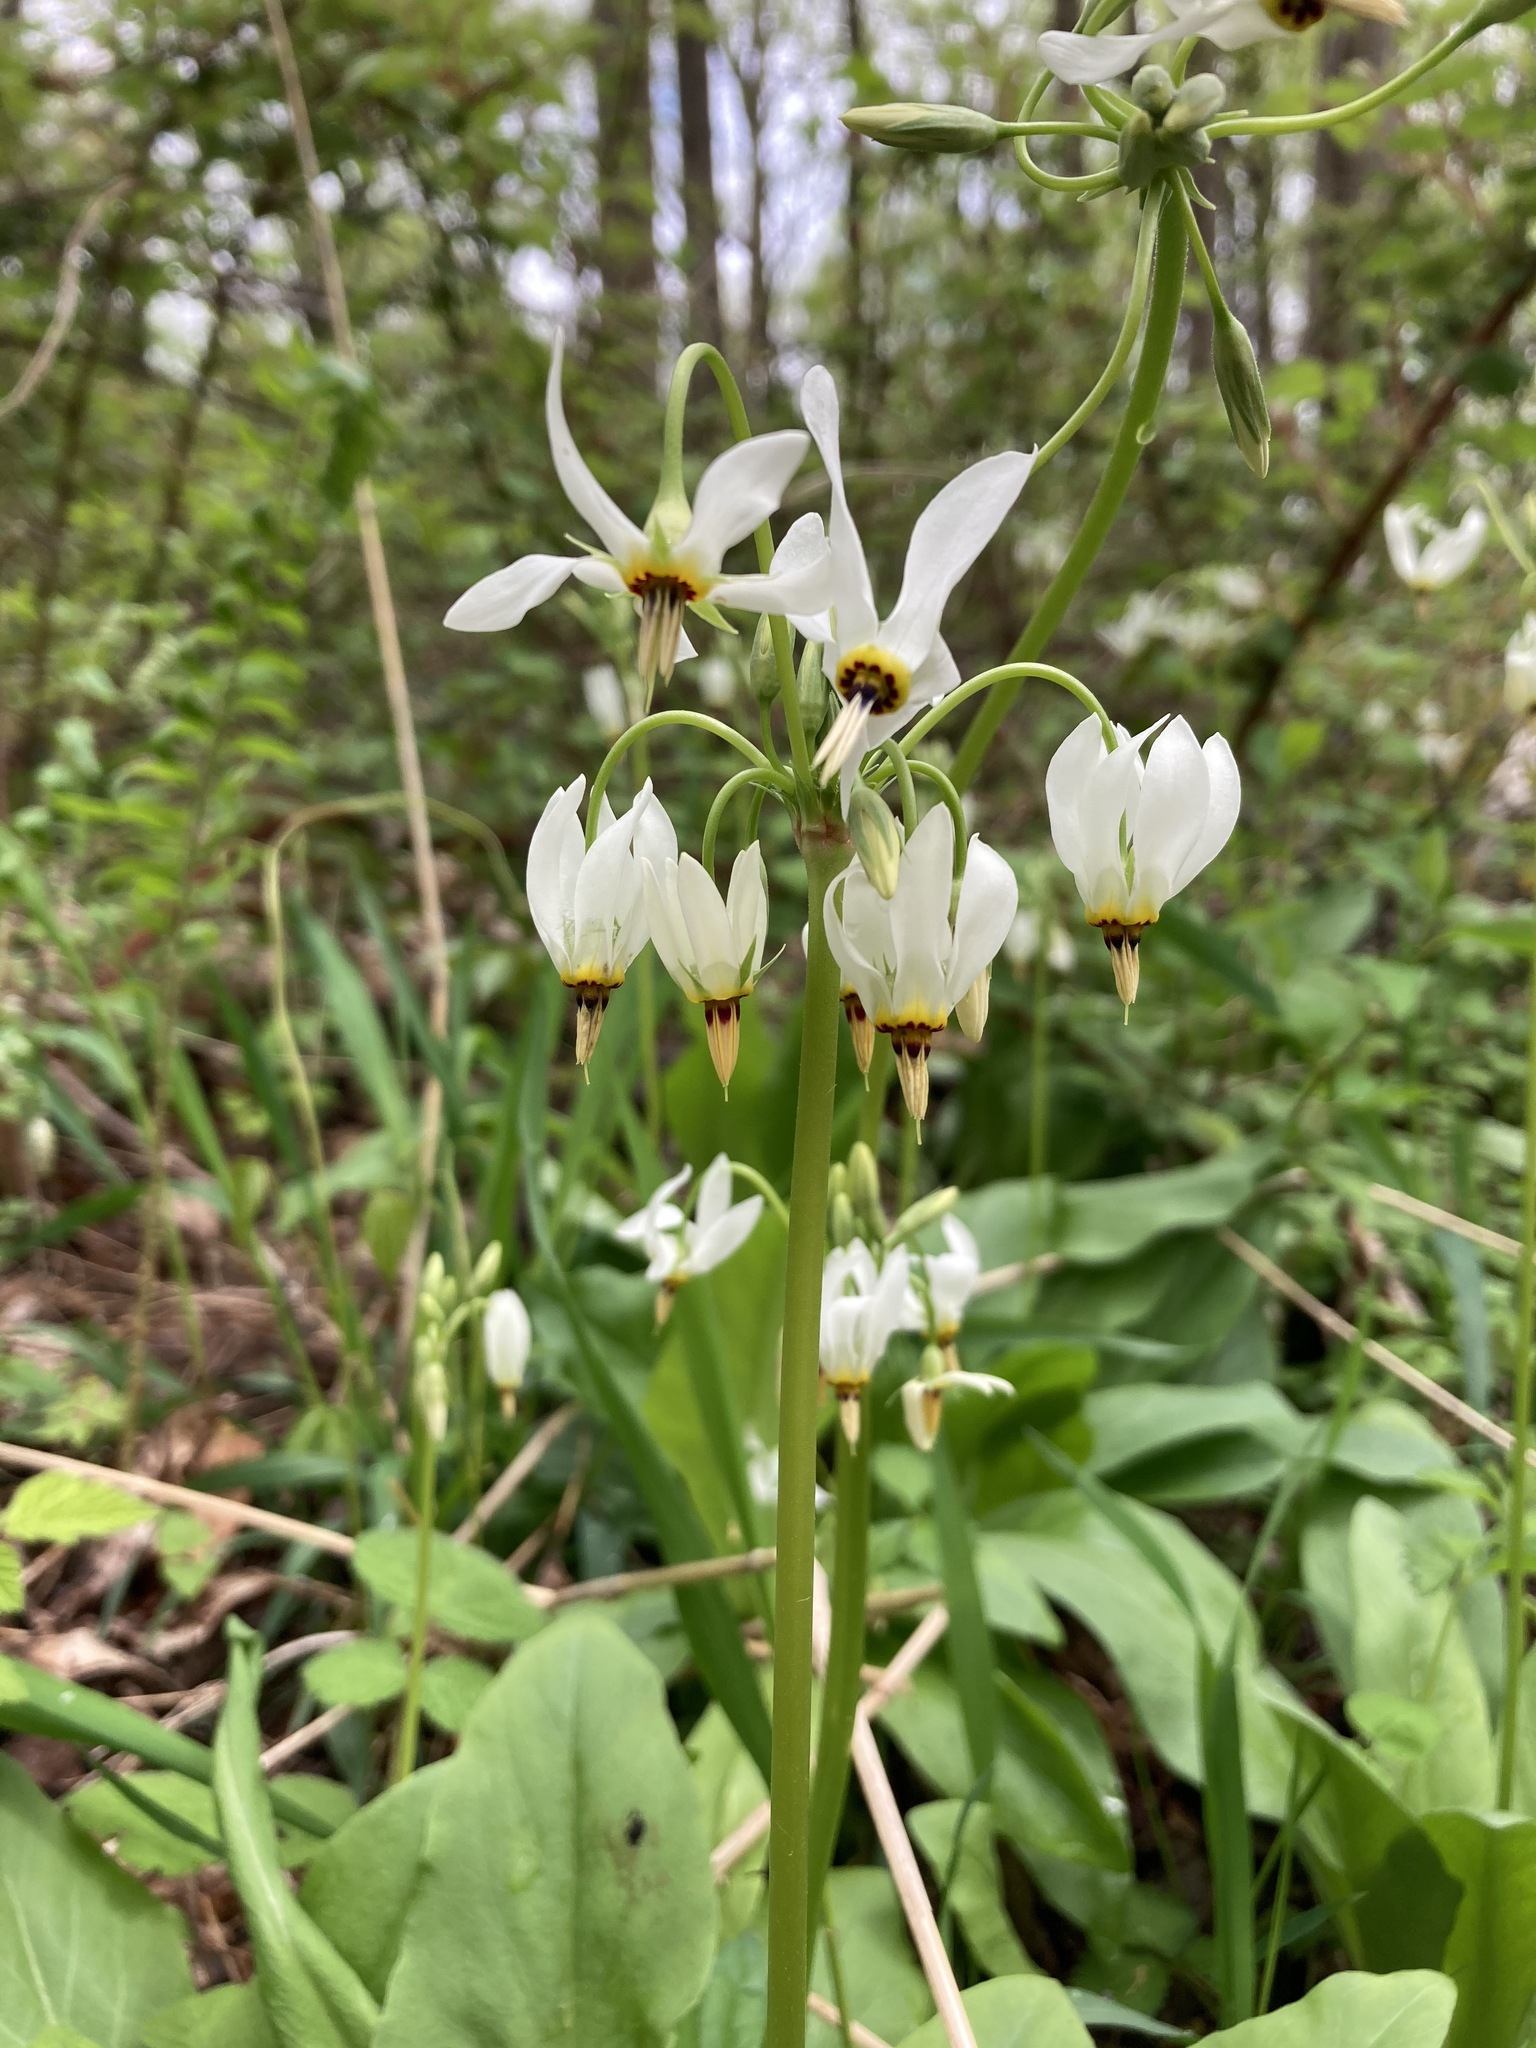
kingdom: Plantae
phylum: Tracheophyta
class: Magnoliopsida
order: Ericales
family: Primulaceae
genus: Dodecatheon
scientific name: Dodecatheon meadia
